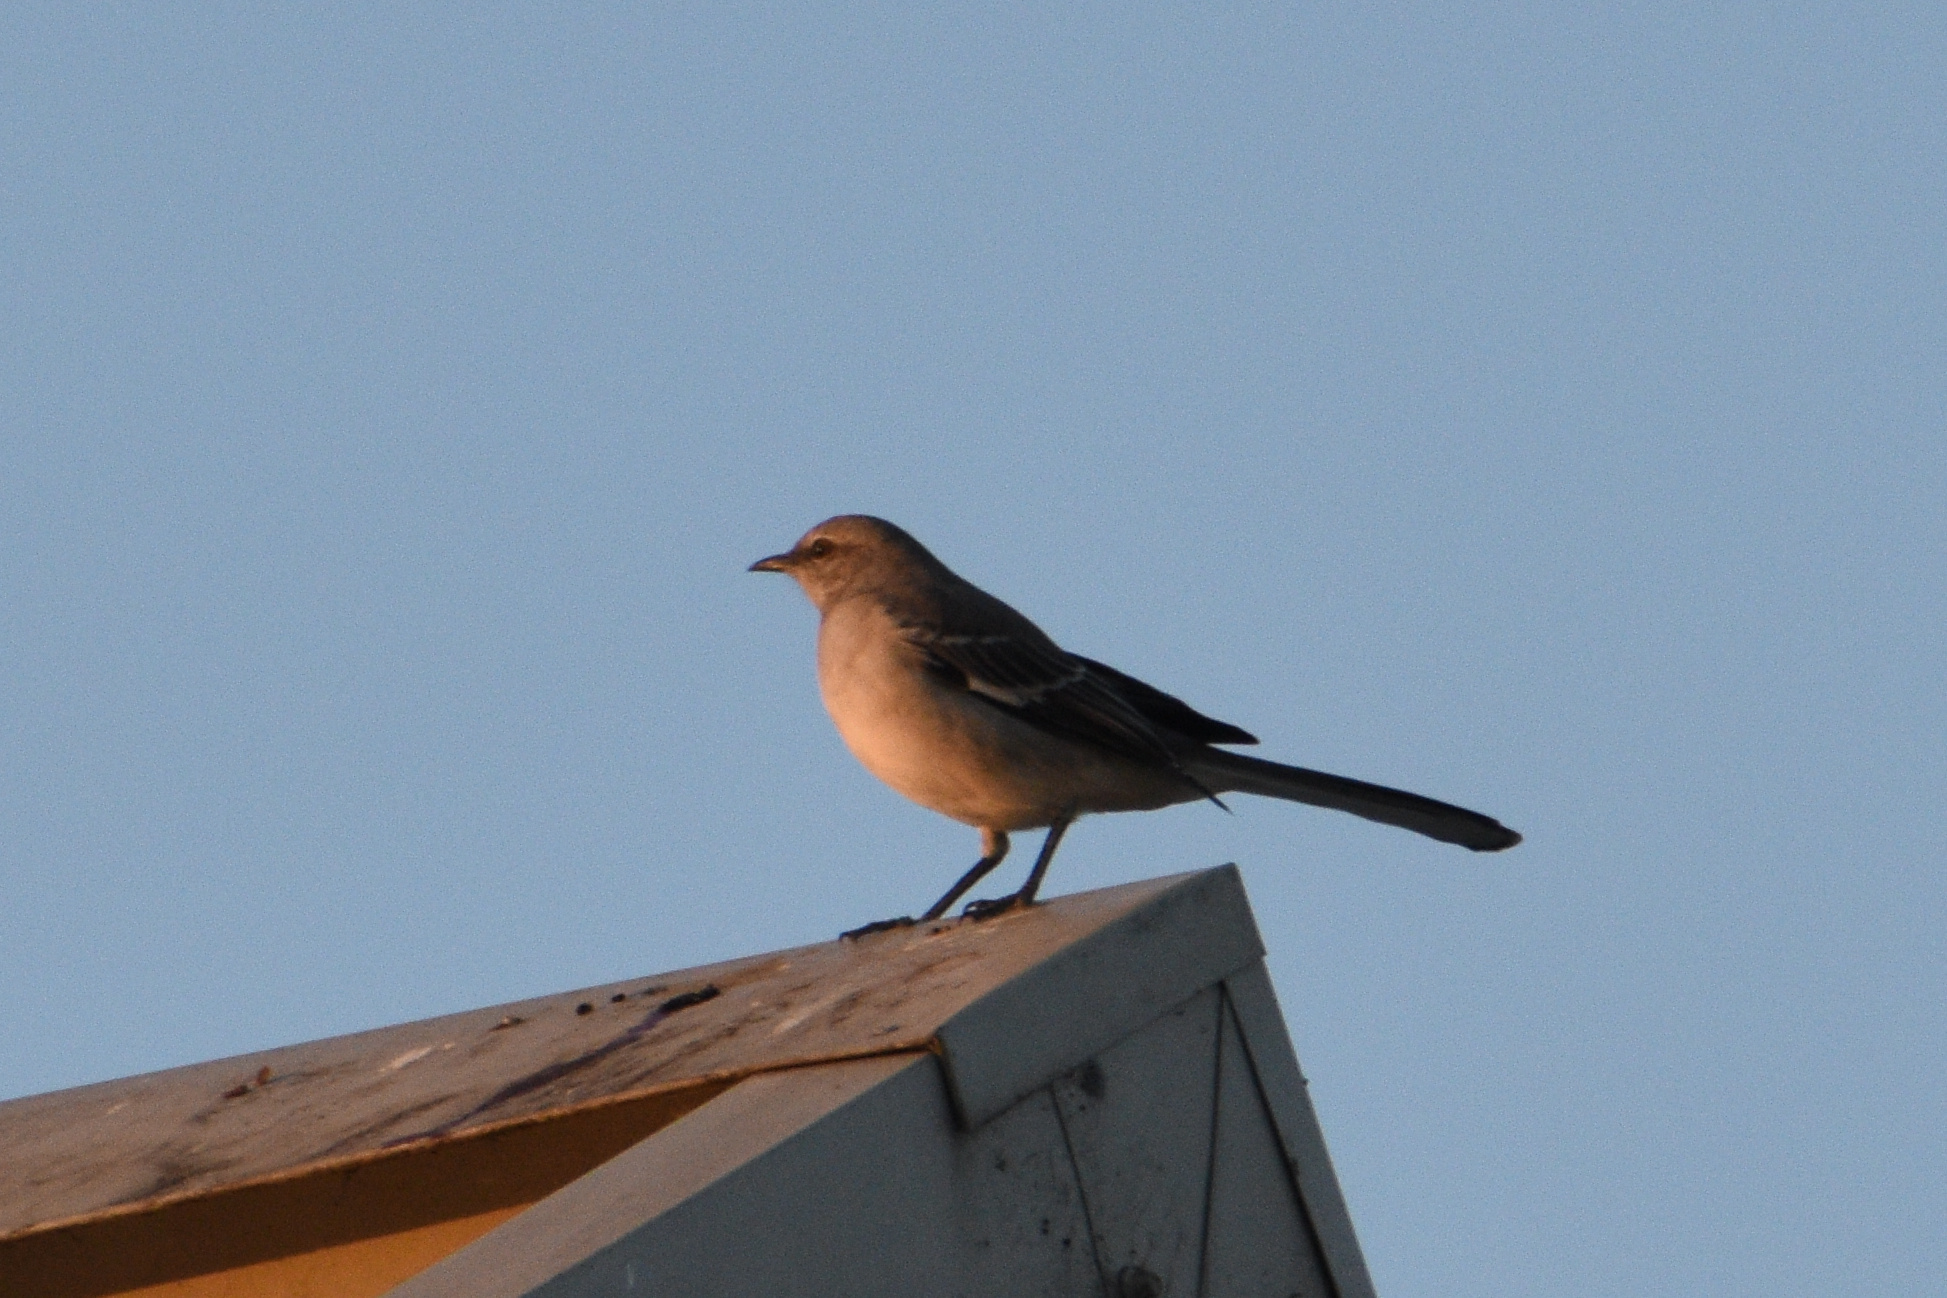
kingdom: Animalia
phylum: Chordata
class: Aves
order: Passeriformes
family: Mimidae
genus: Mimus
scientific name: Mimus polyglottos
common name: Northern mockingbird
